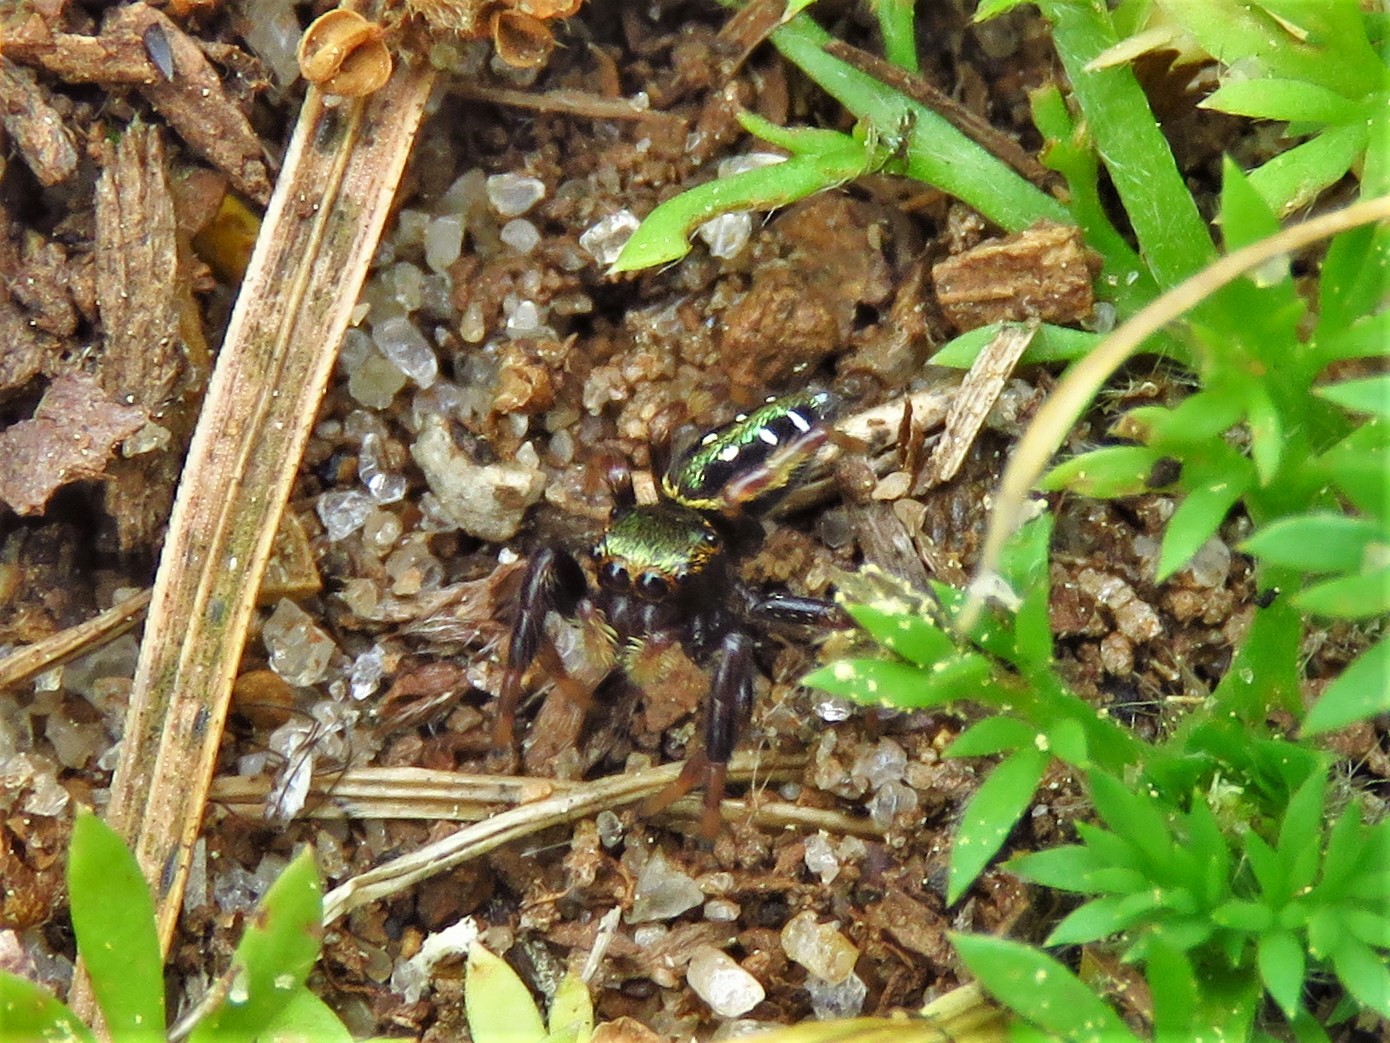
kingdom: Animalia
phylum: Arthropoda
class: Arachnida
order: Araneae
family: Salticidae
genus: Paraphidippus
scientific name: Paraphidippus aurantius
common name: Jumping spiders
